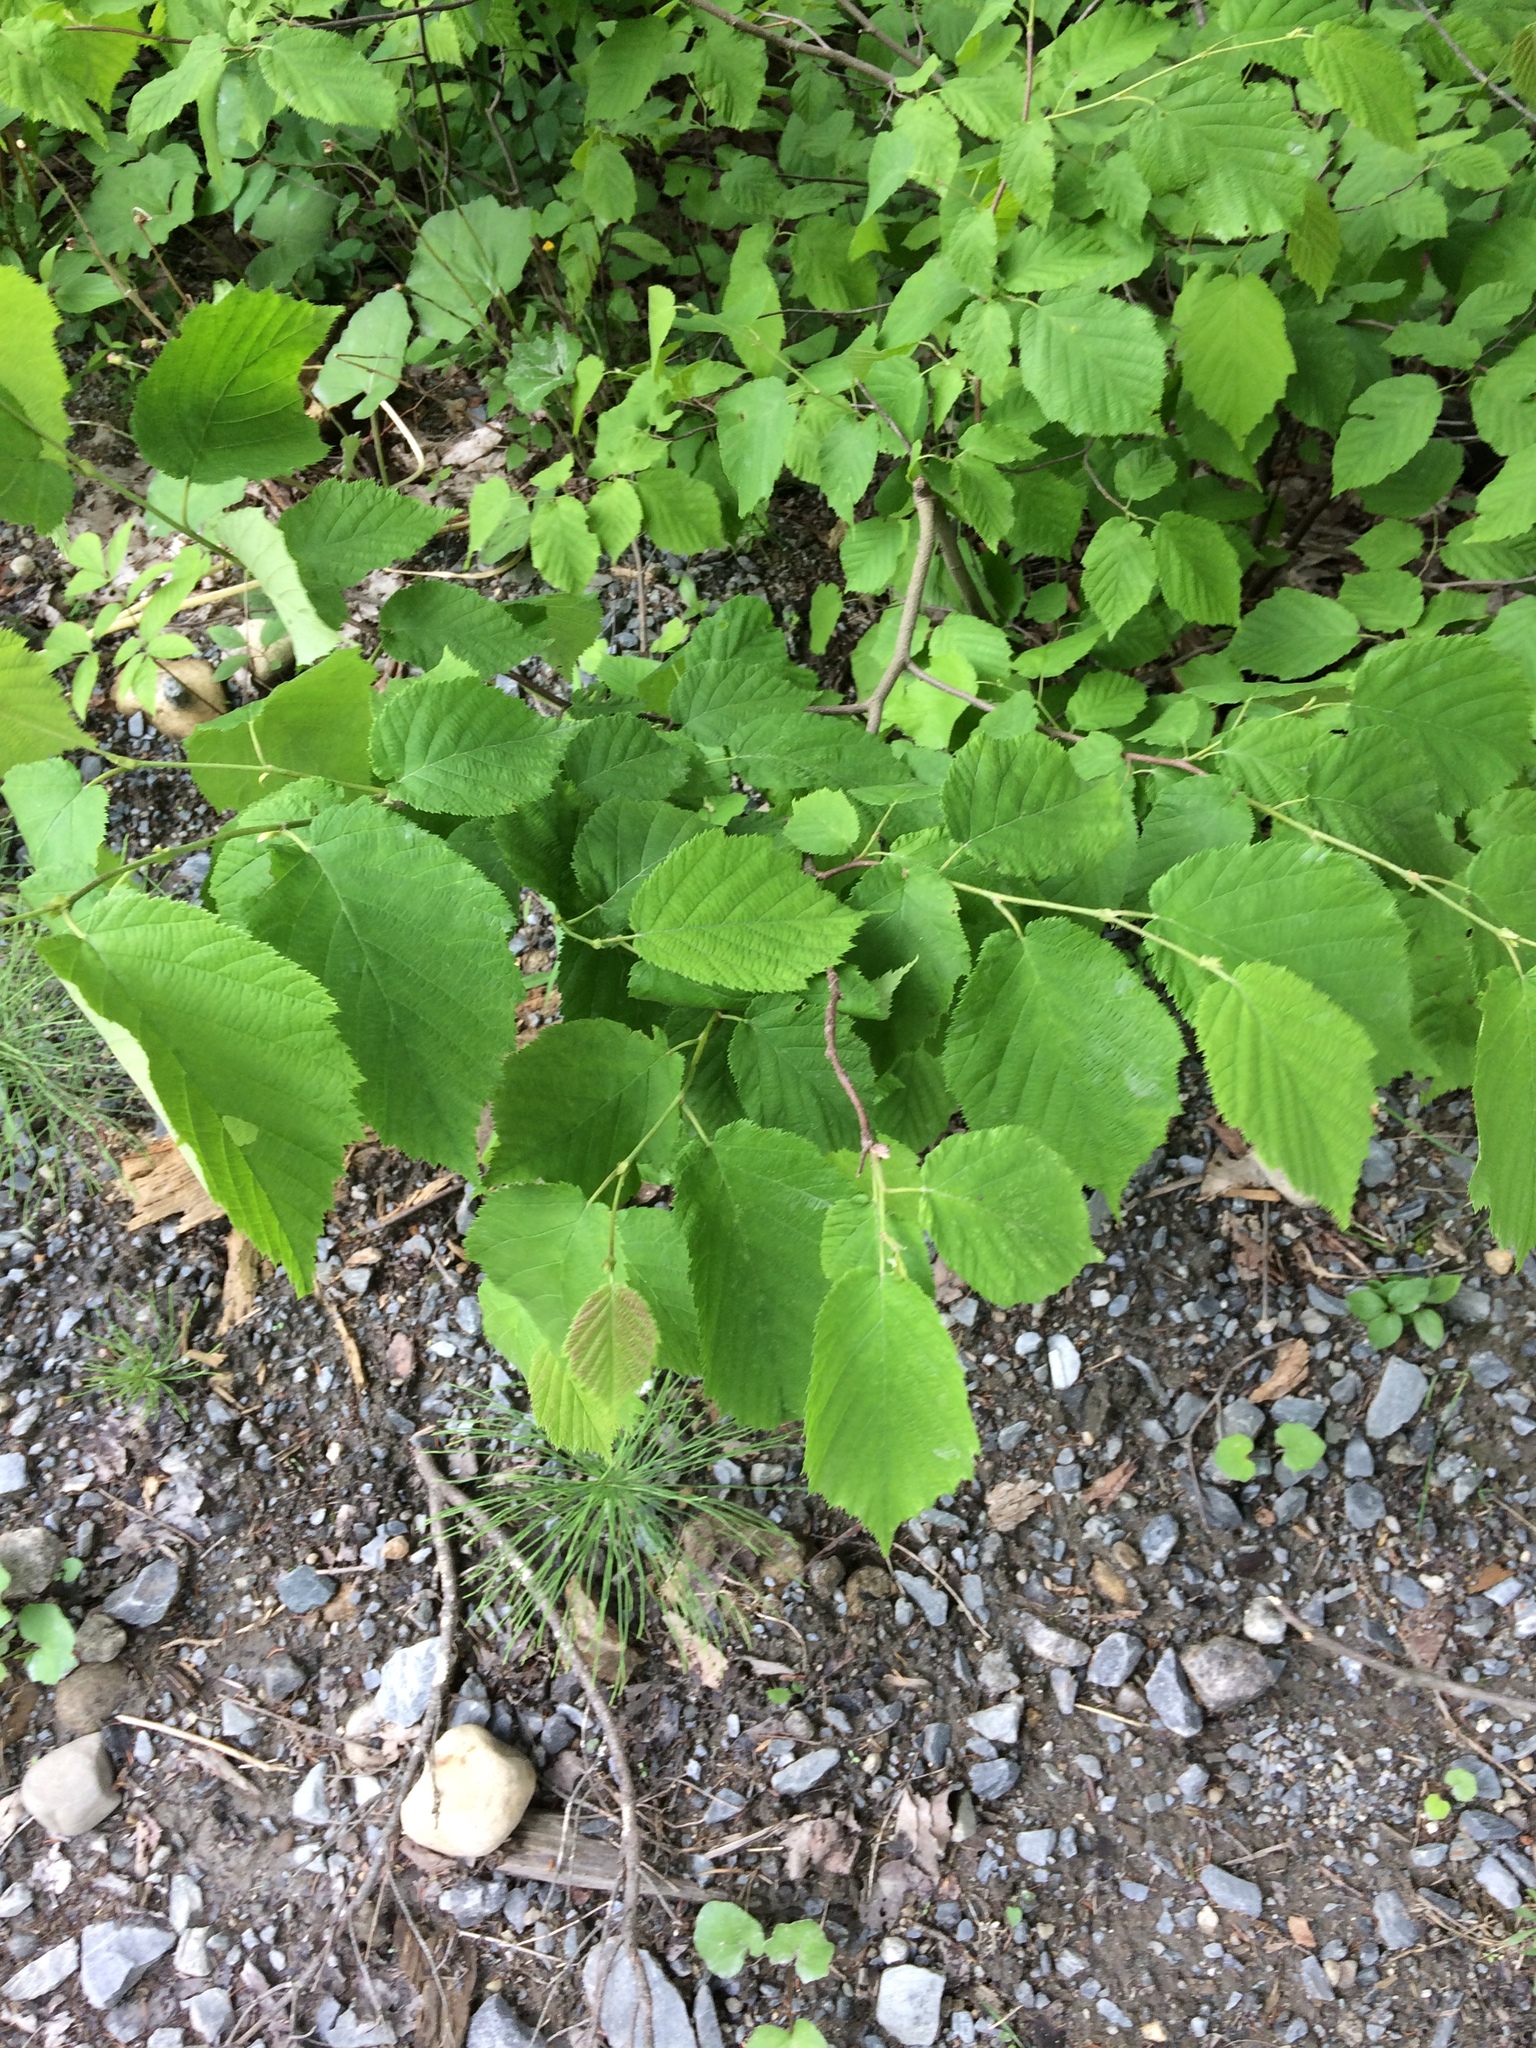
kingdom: Plantae
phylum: Tracheophyta
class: Magnoliopsida
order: Fagales
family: Betulaceae
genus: Corylus
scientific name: Corylus cornuta
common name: Beaked hazel
